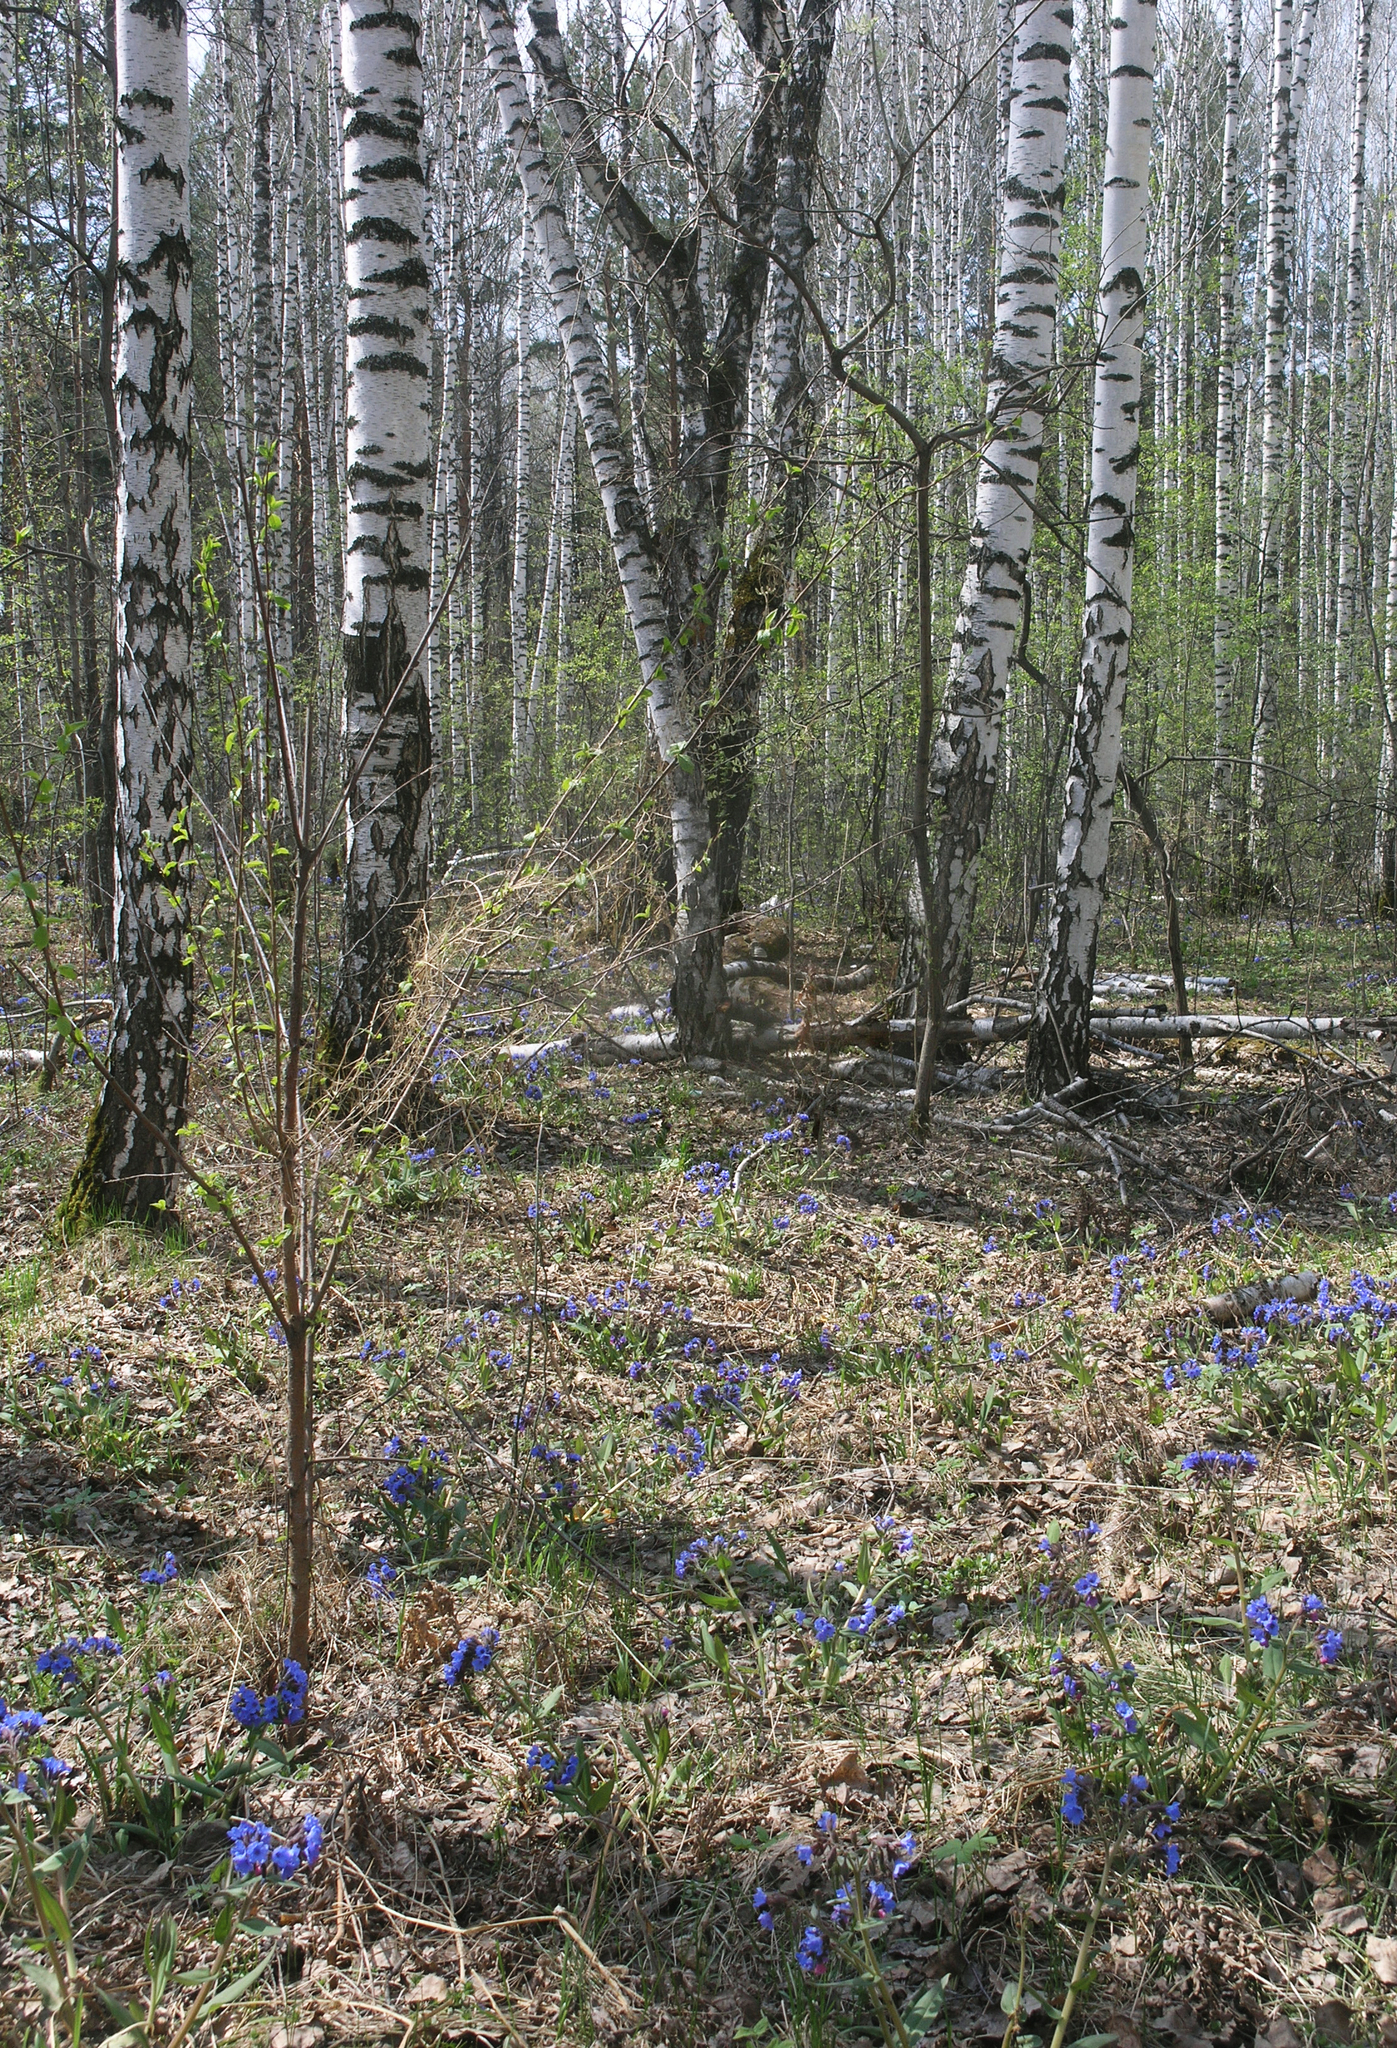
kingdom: Plantae
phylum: Tracheophyta
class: Magnoliopsida
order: Fagales
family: Betulaceae
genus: Betula
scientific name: Betula pendula
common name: Silver birch
